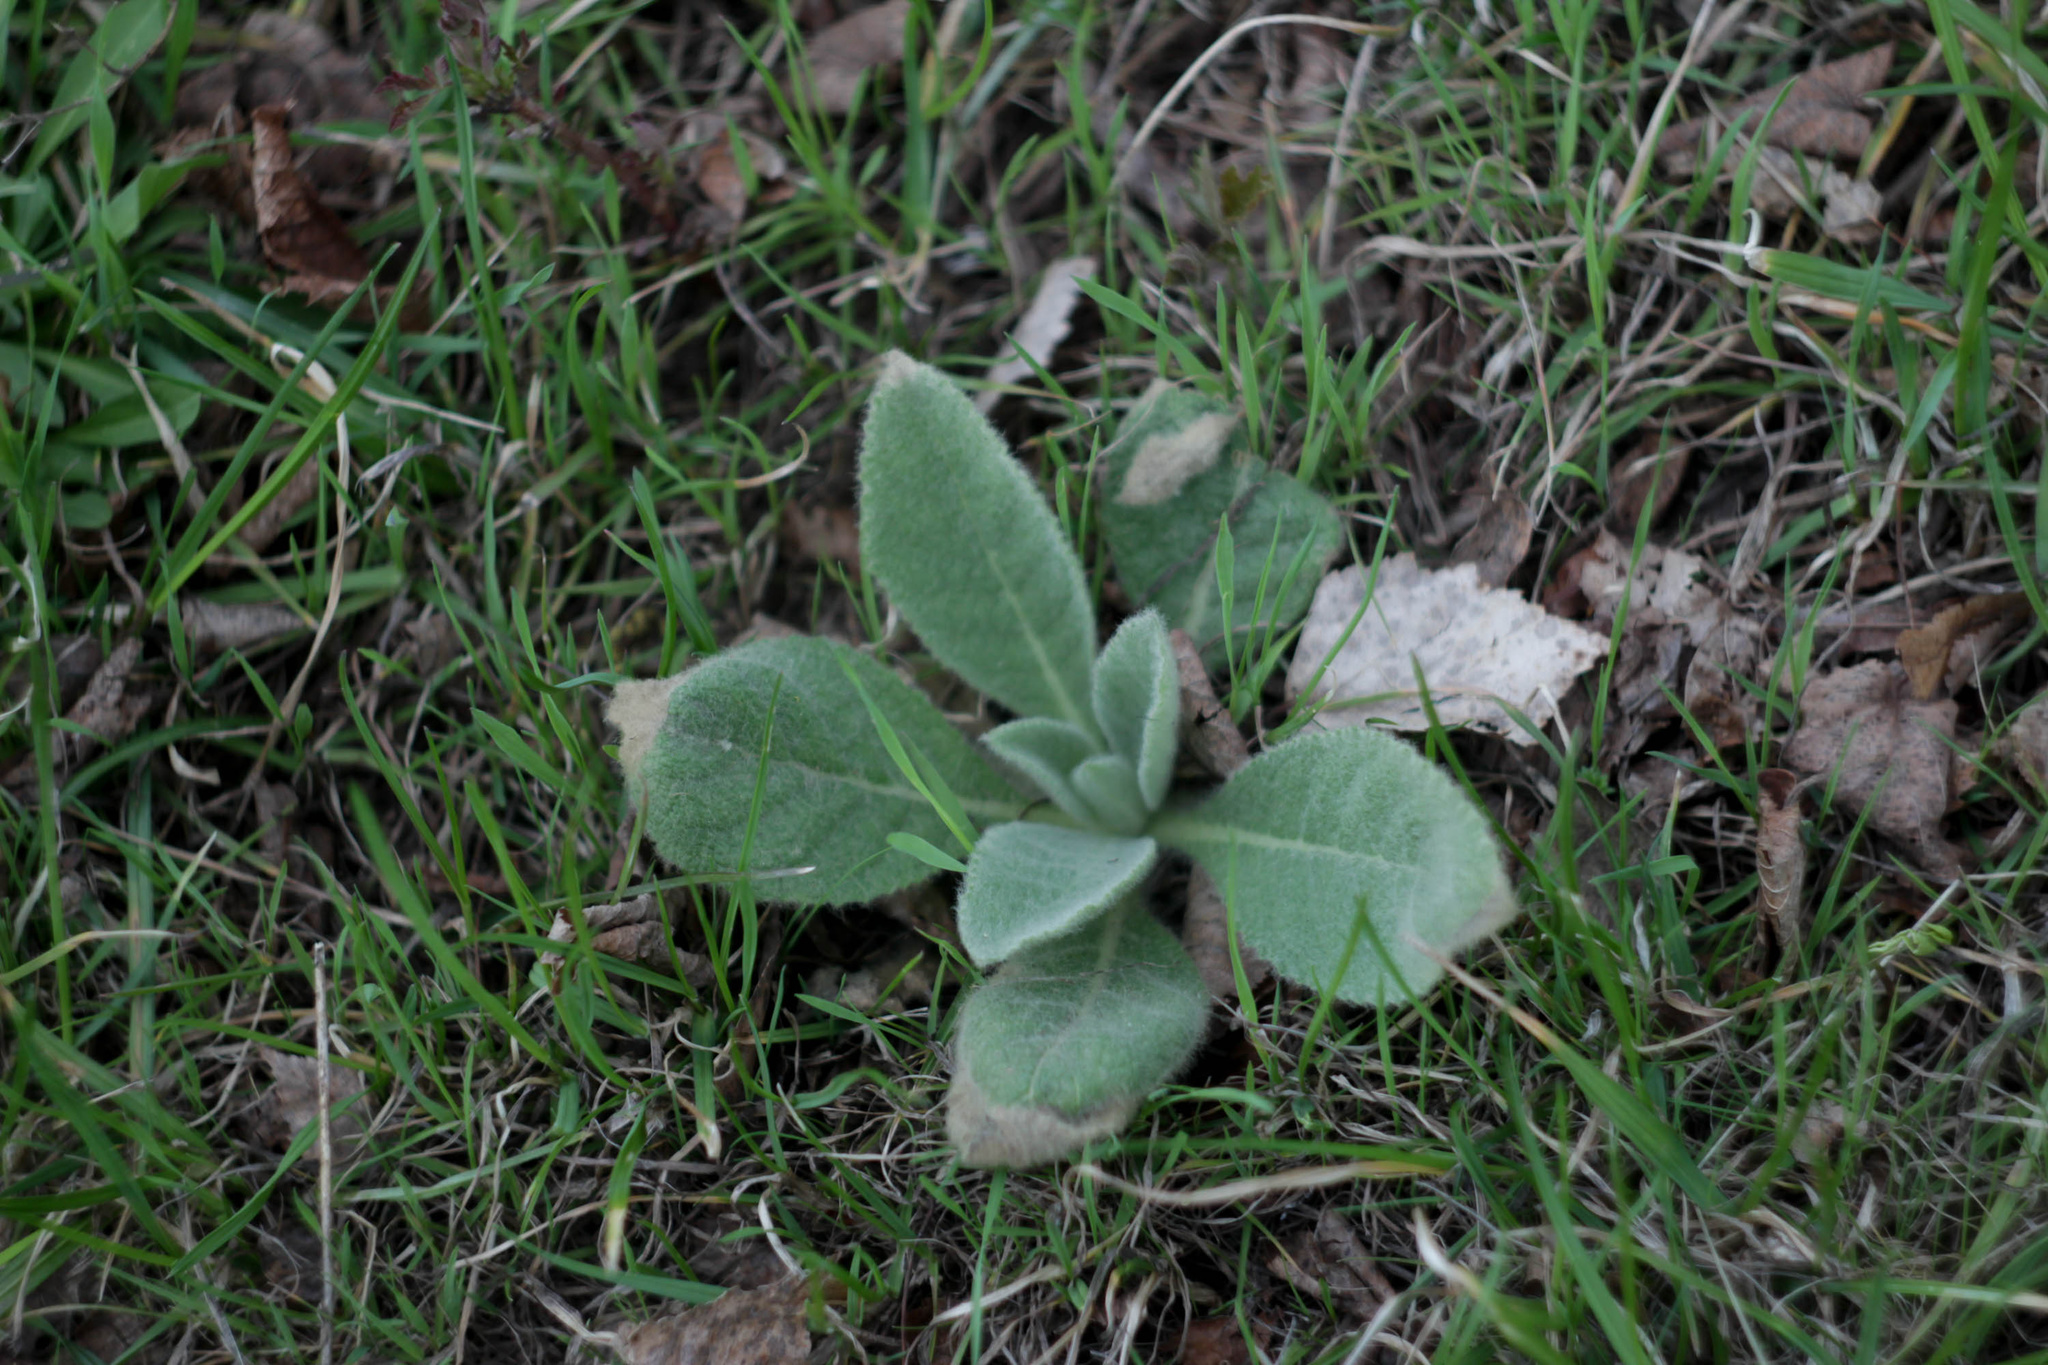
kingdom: Plantae
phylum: Tracheophyta
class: Magnoliopsida
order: Lamiales
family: Scrophulariaceae
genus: Verbascum
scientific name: Verbascum thapsus
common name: Common mullein
